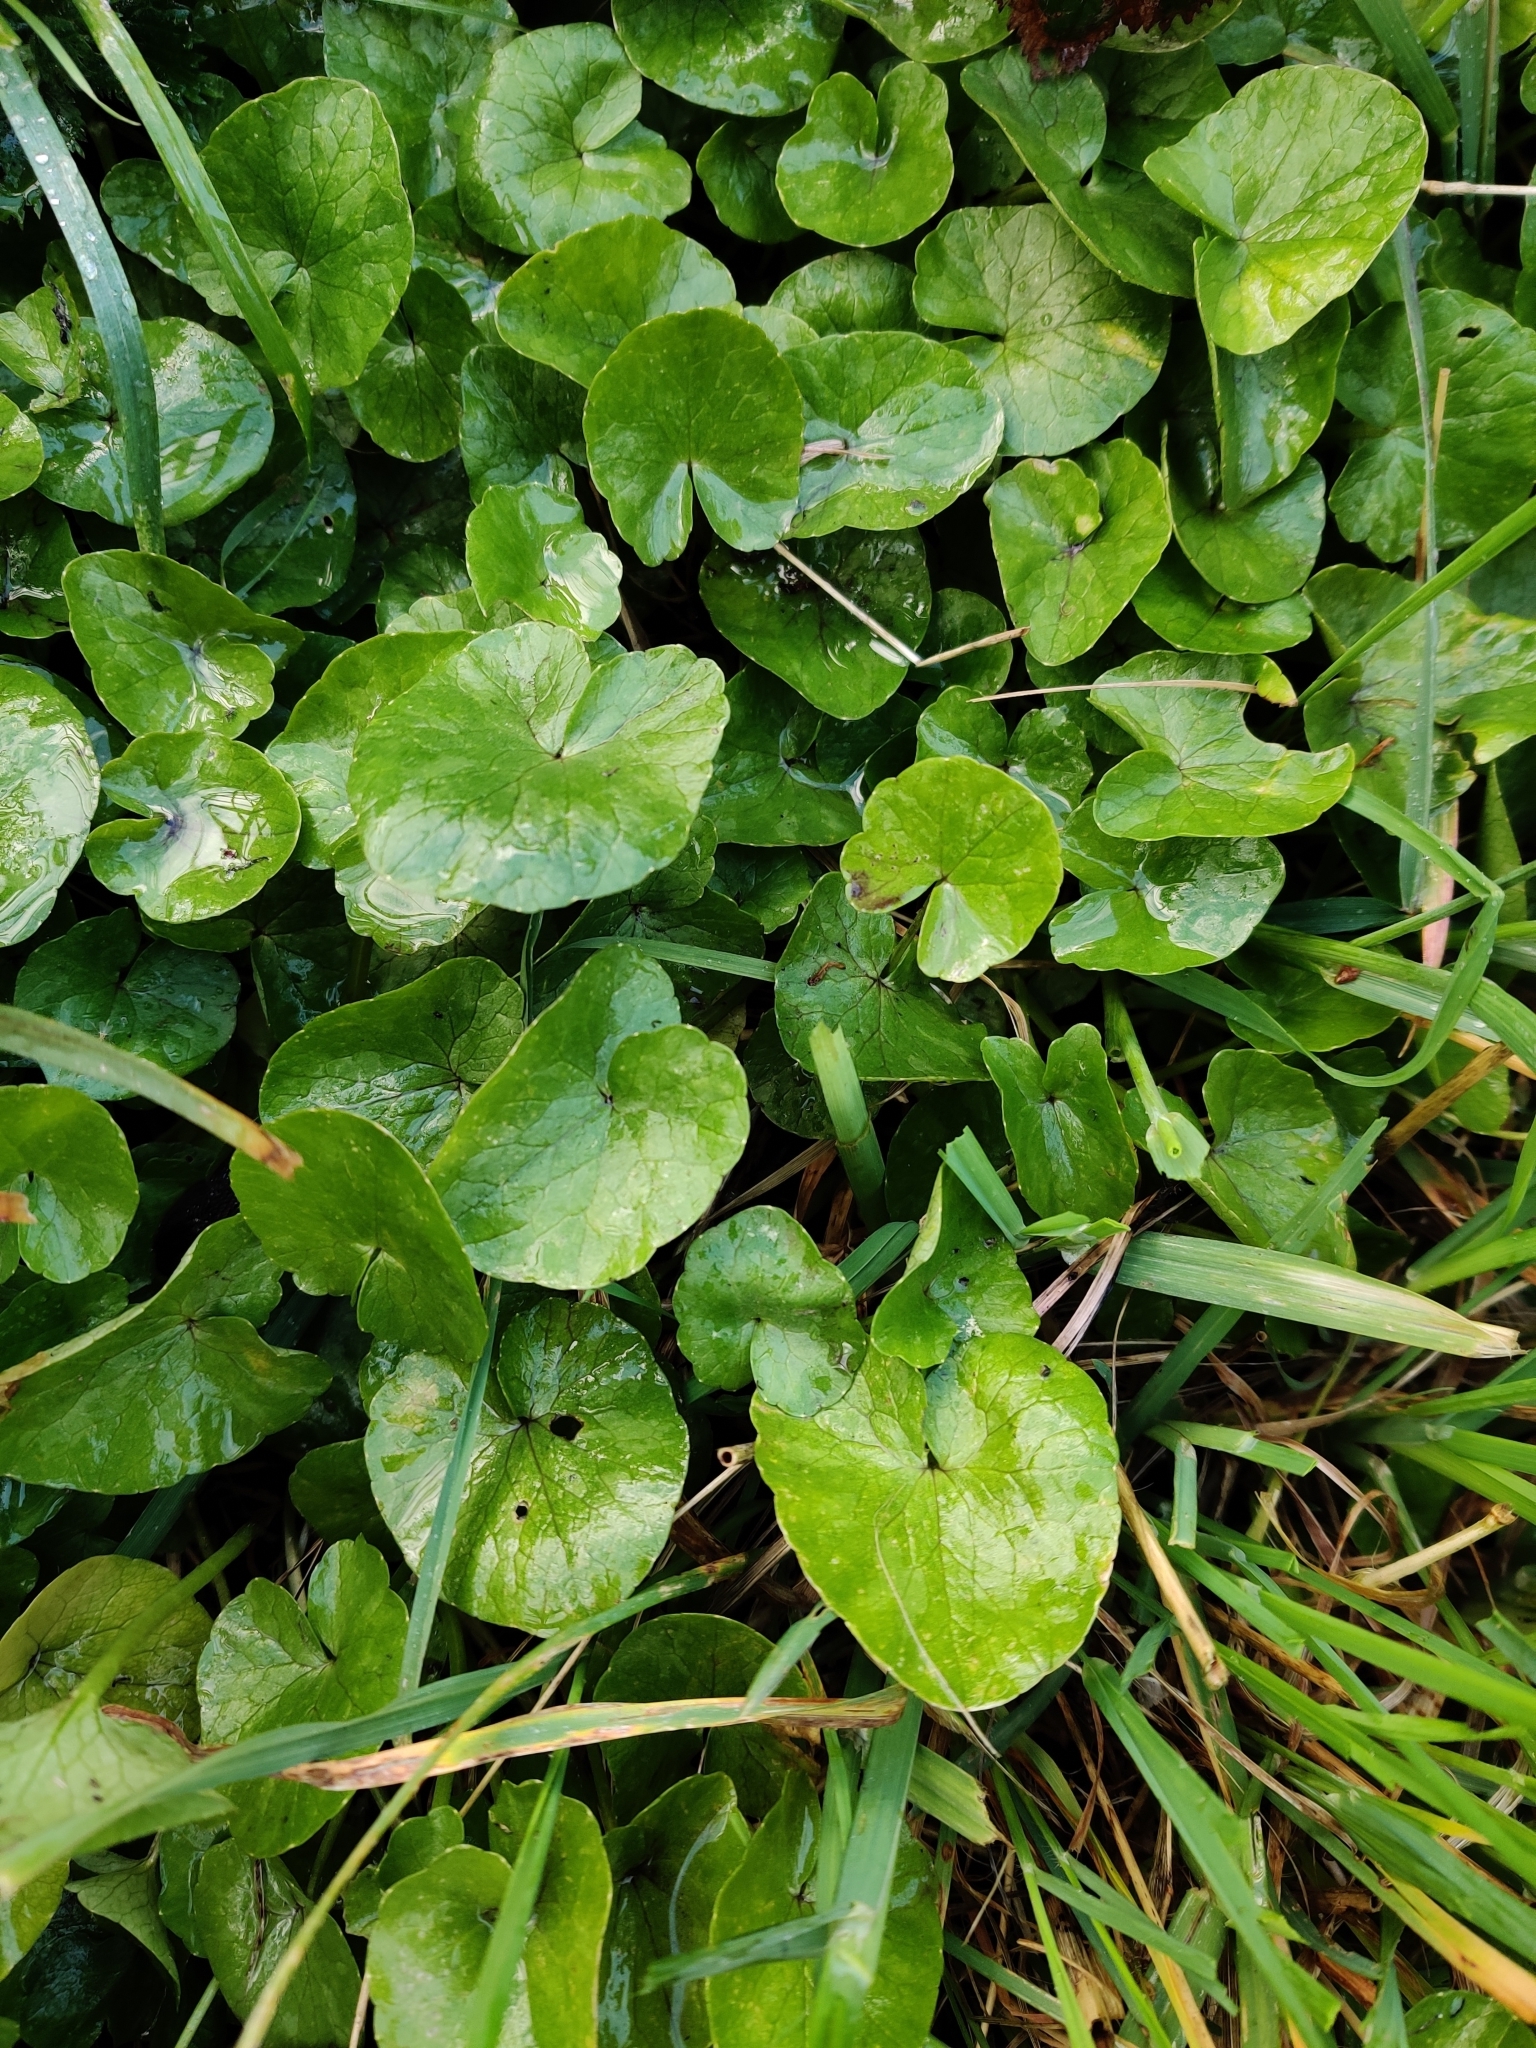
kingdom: Plantae
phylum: Tracheophyta
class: Magnoliopsida
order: Ranunculales
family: Ranunculaceae
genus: Ficaria
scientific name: Ficaria verna
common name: Lesser celandine
